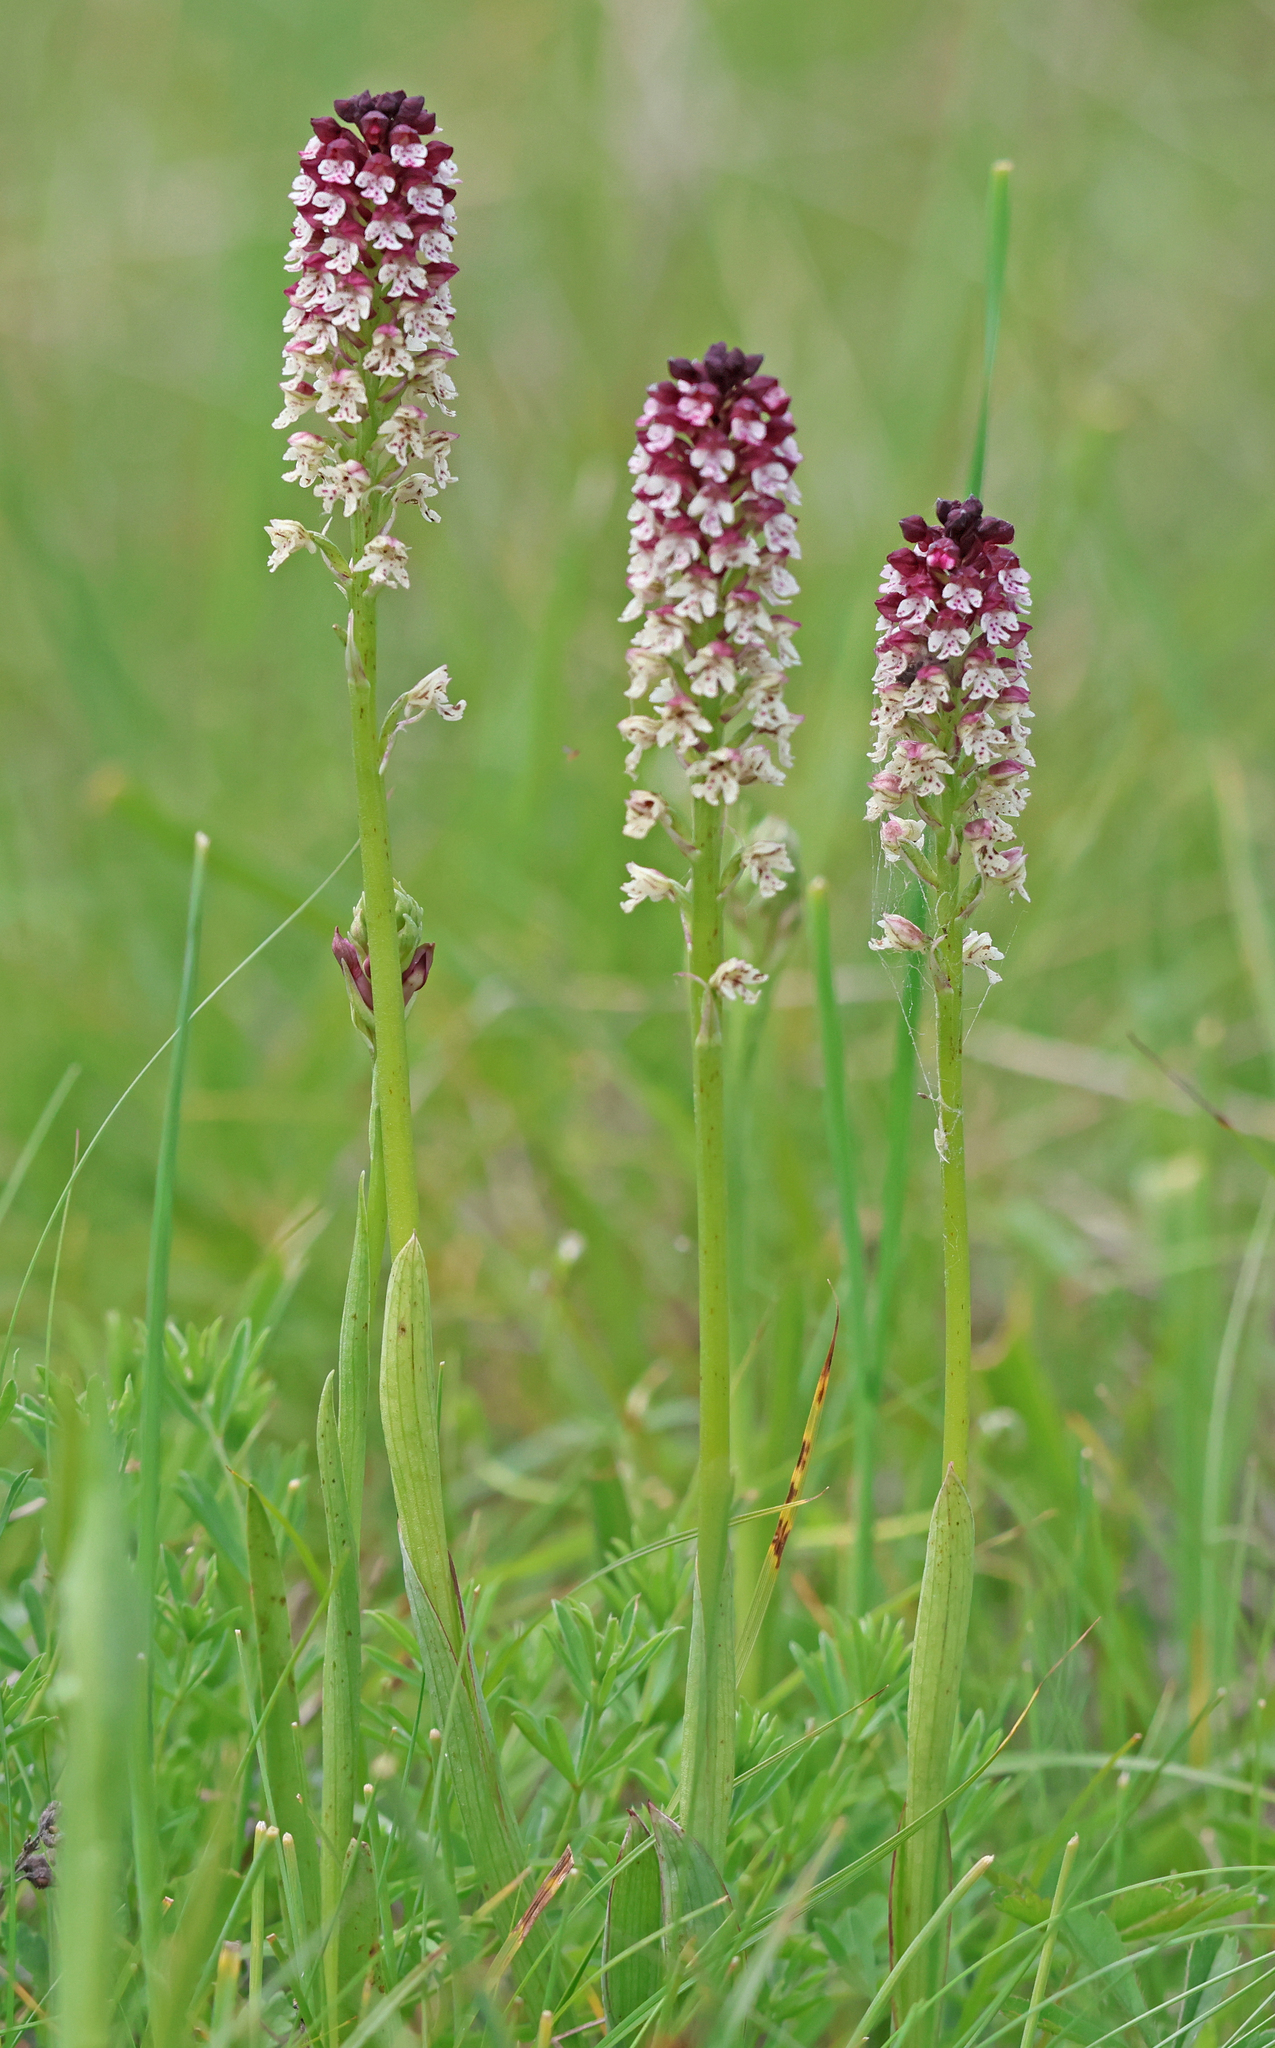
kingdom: Plantae
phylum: Tracheophyta
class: Liliopsida
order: Asparagales
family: Orchidaceae
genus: Neotinea
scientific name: Neotinea ustulata
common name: Burnt orchid
